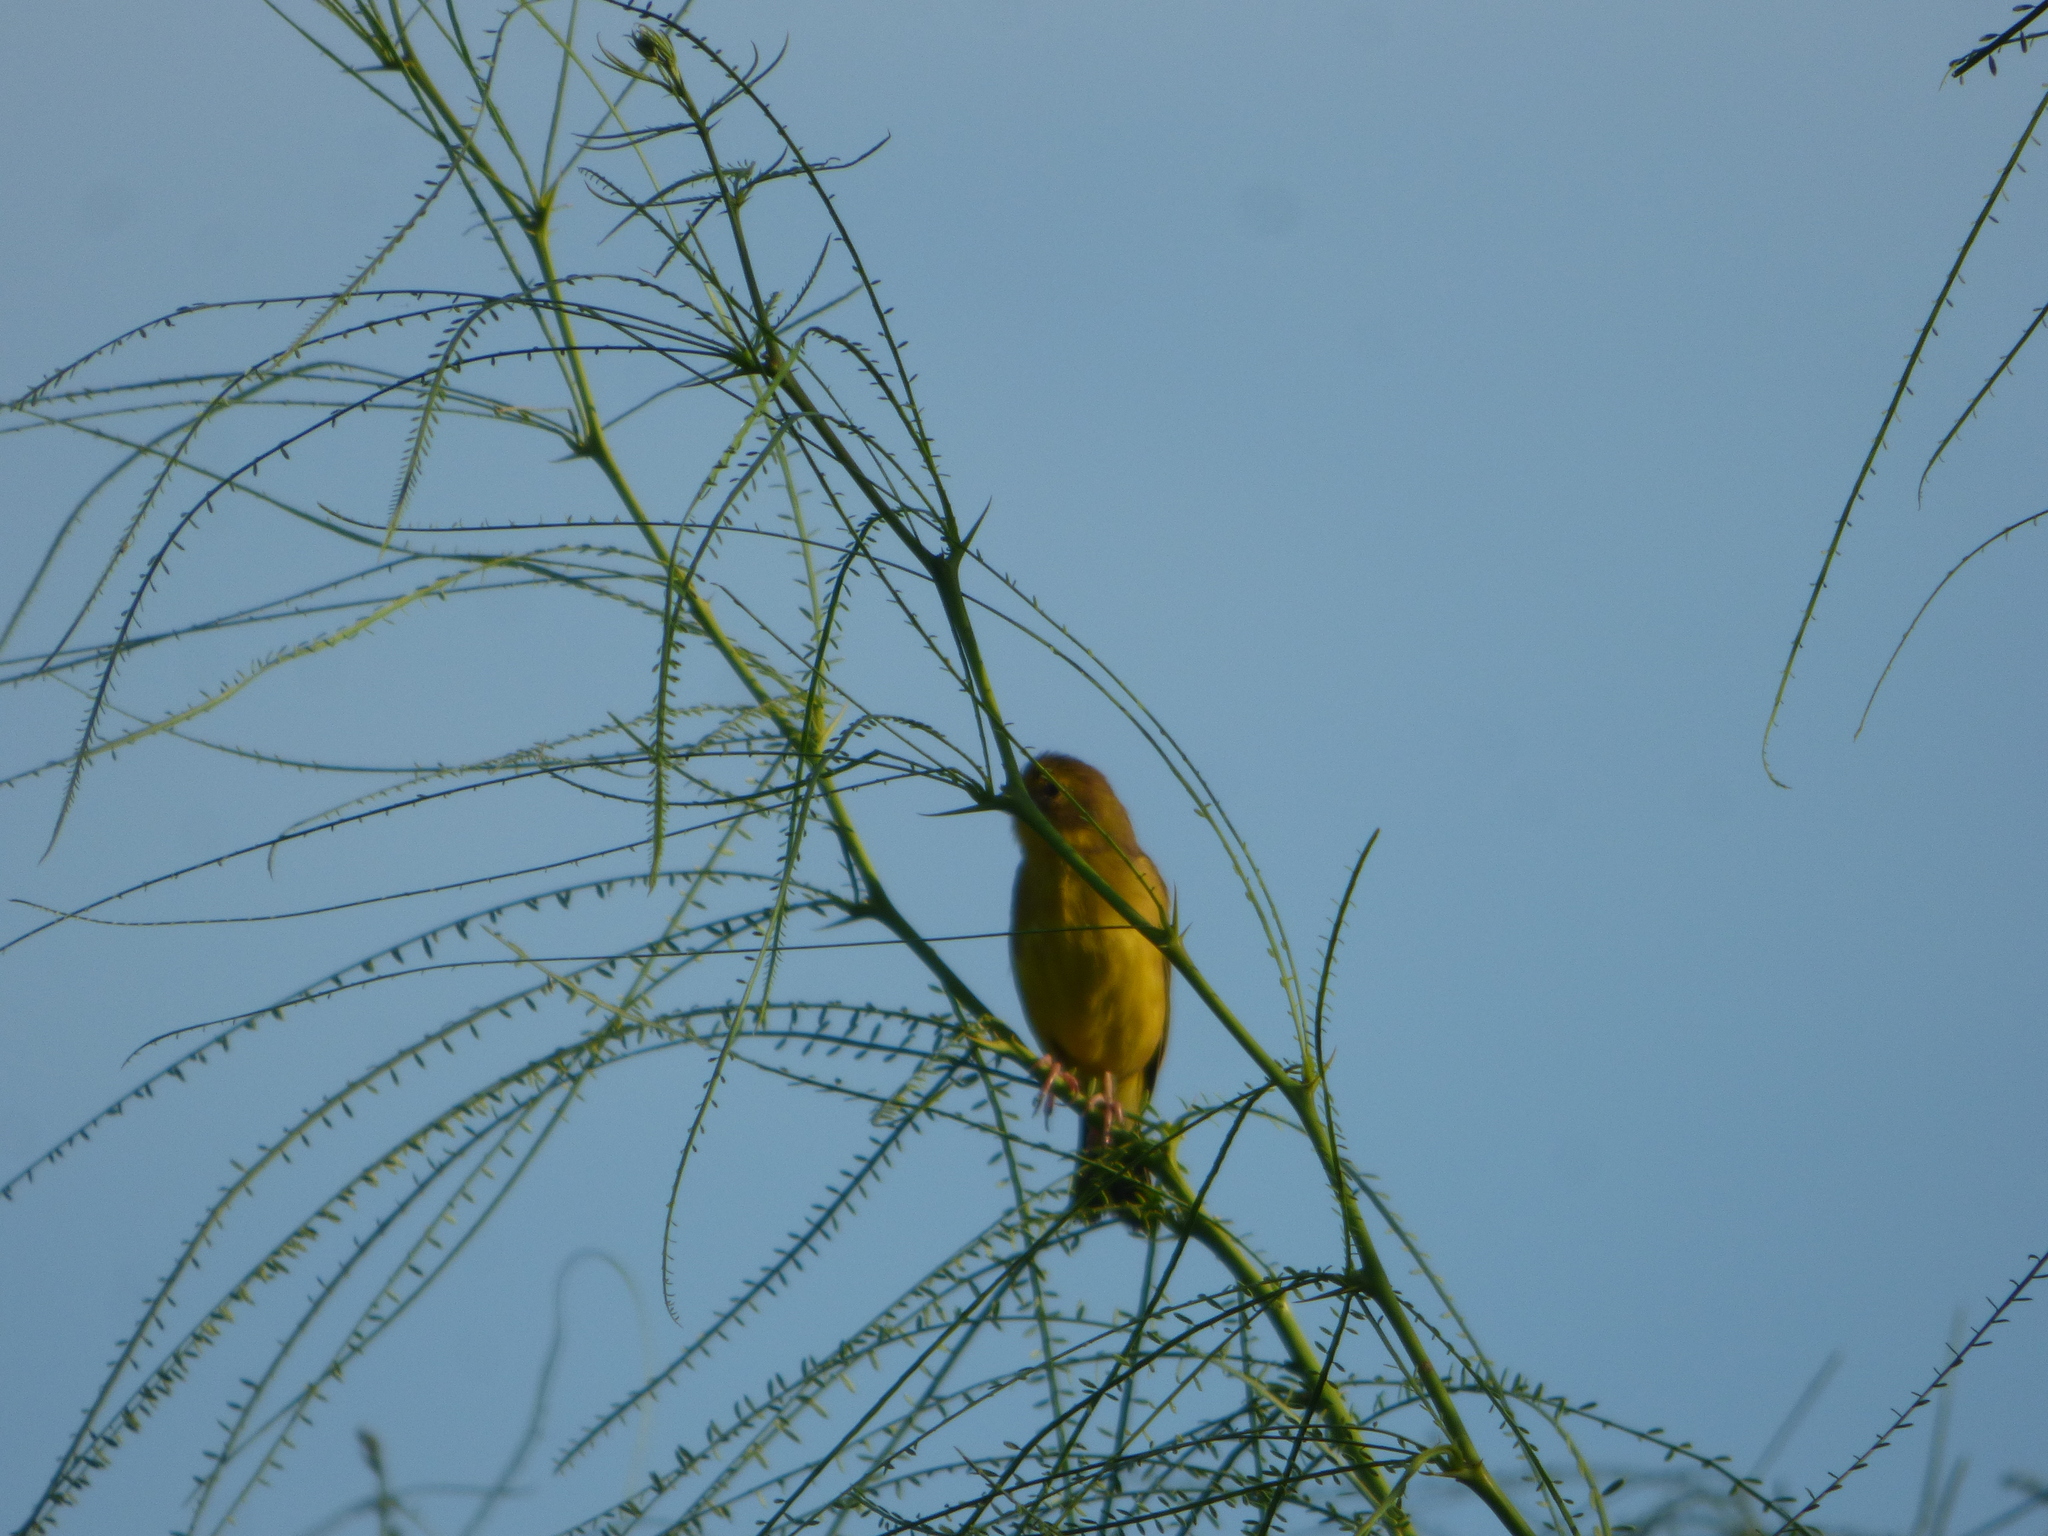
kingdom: Animalia
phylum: Chordata
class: Aves
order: Passeriformes
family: Thraupidae
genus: Sicalis
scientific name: Sicalis luteola
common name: Grassland yellow-finch
